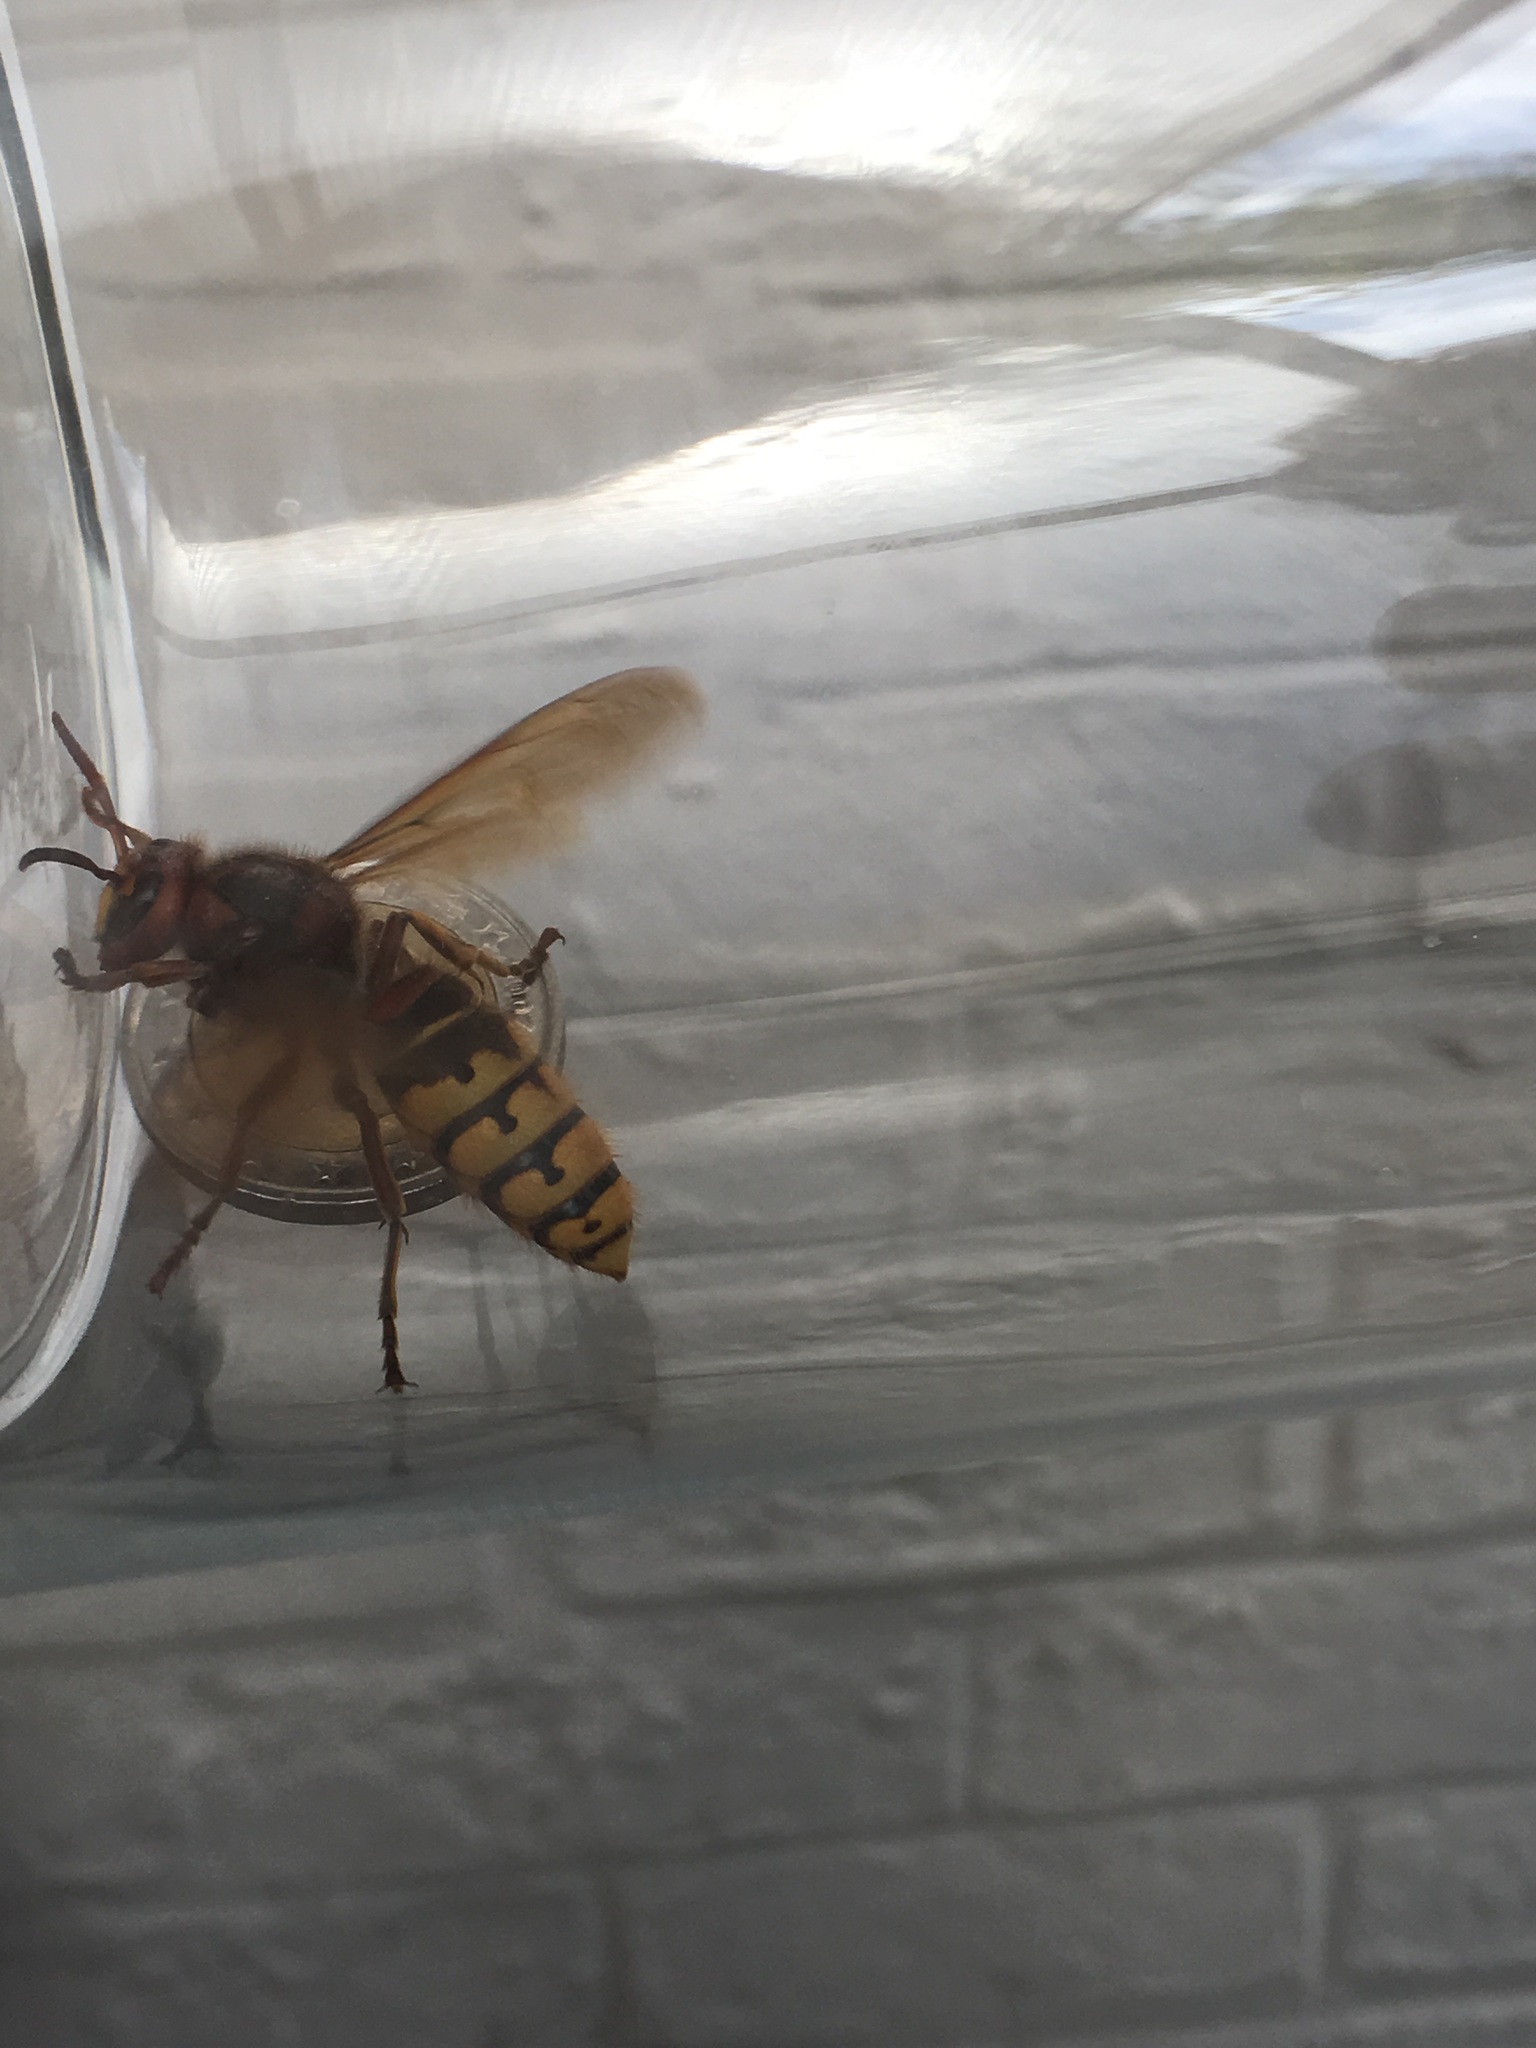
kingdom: Animalia
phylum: Arthropoda
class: Insecta
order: Hymenoptera
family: Vespidae
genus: Vespa
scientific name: Vespa crabro
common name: Hornet
